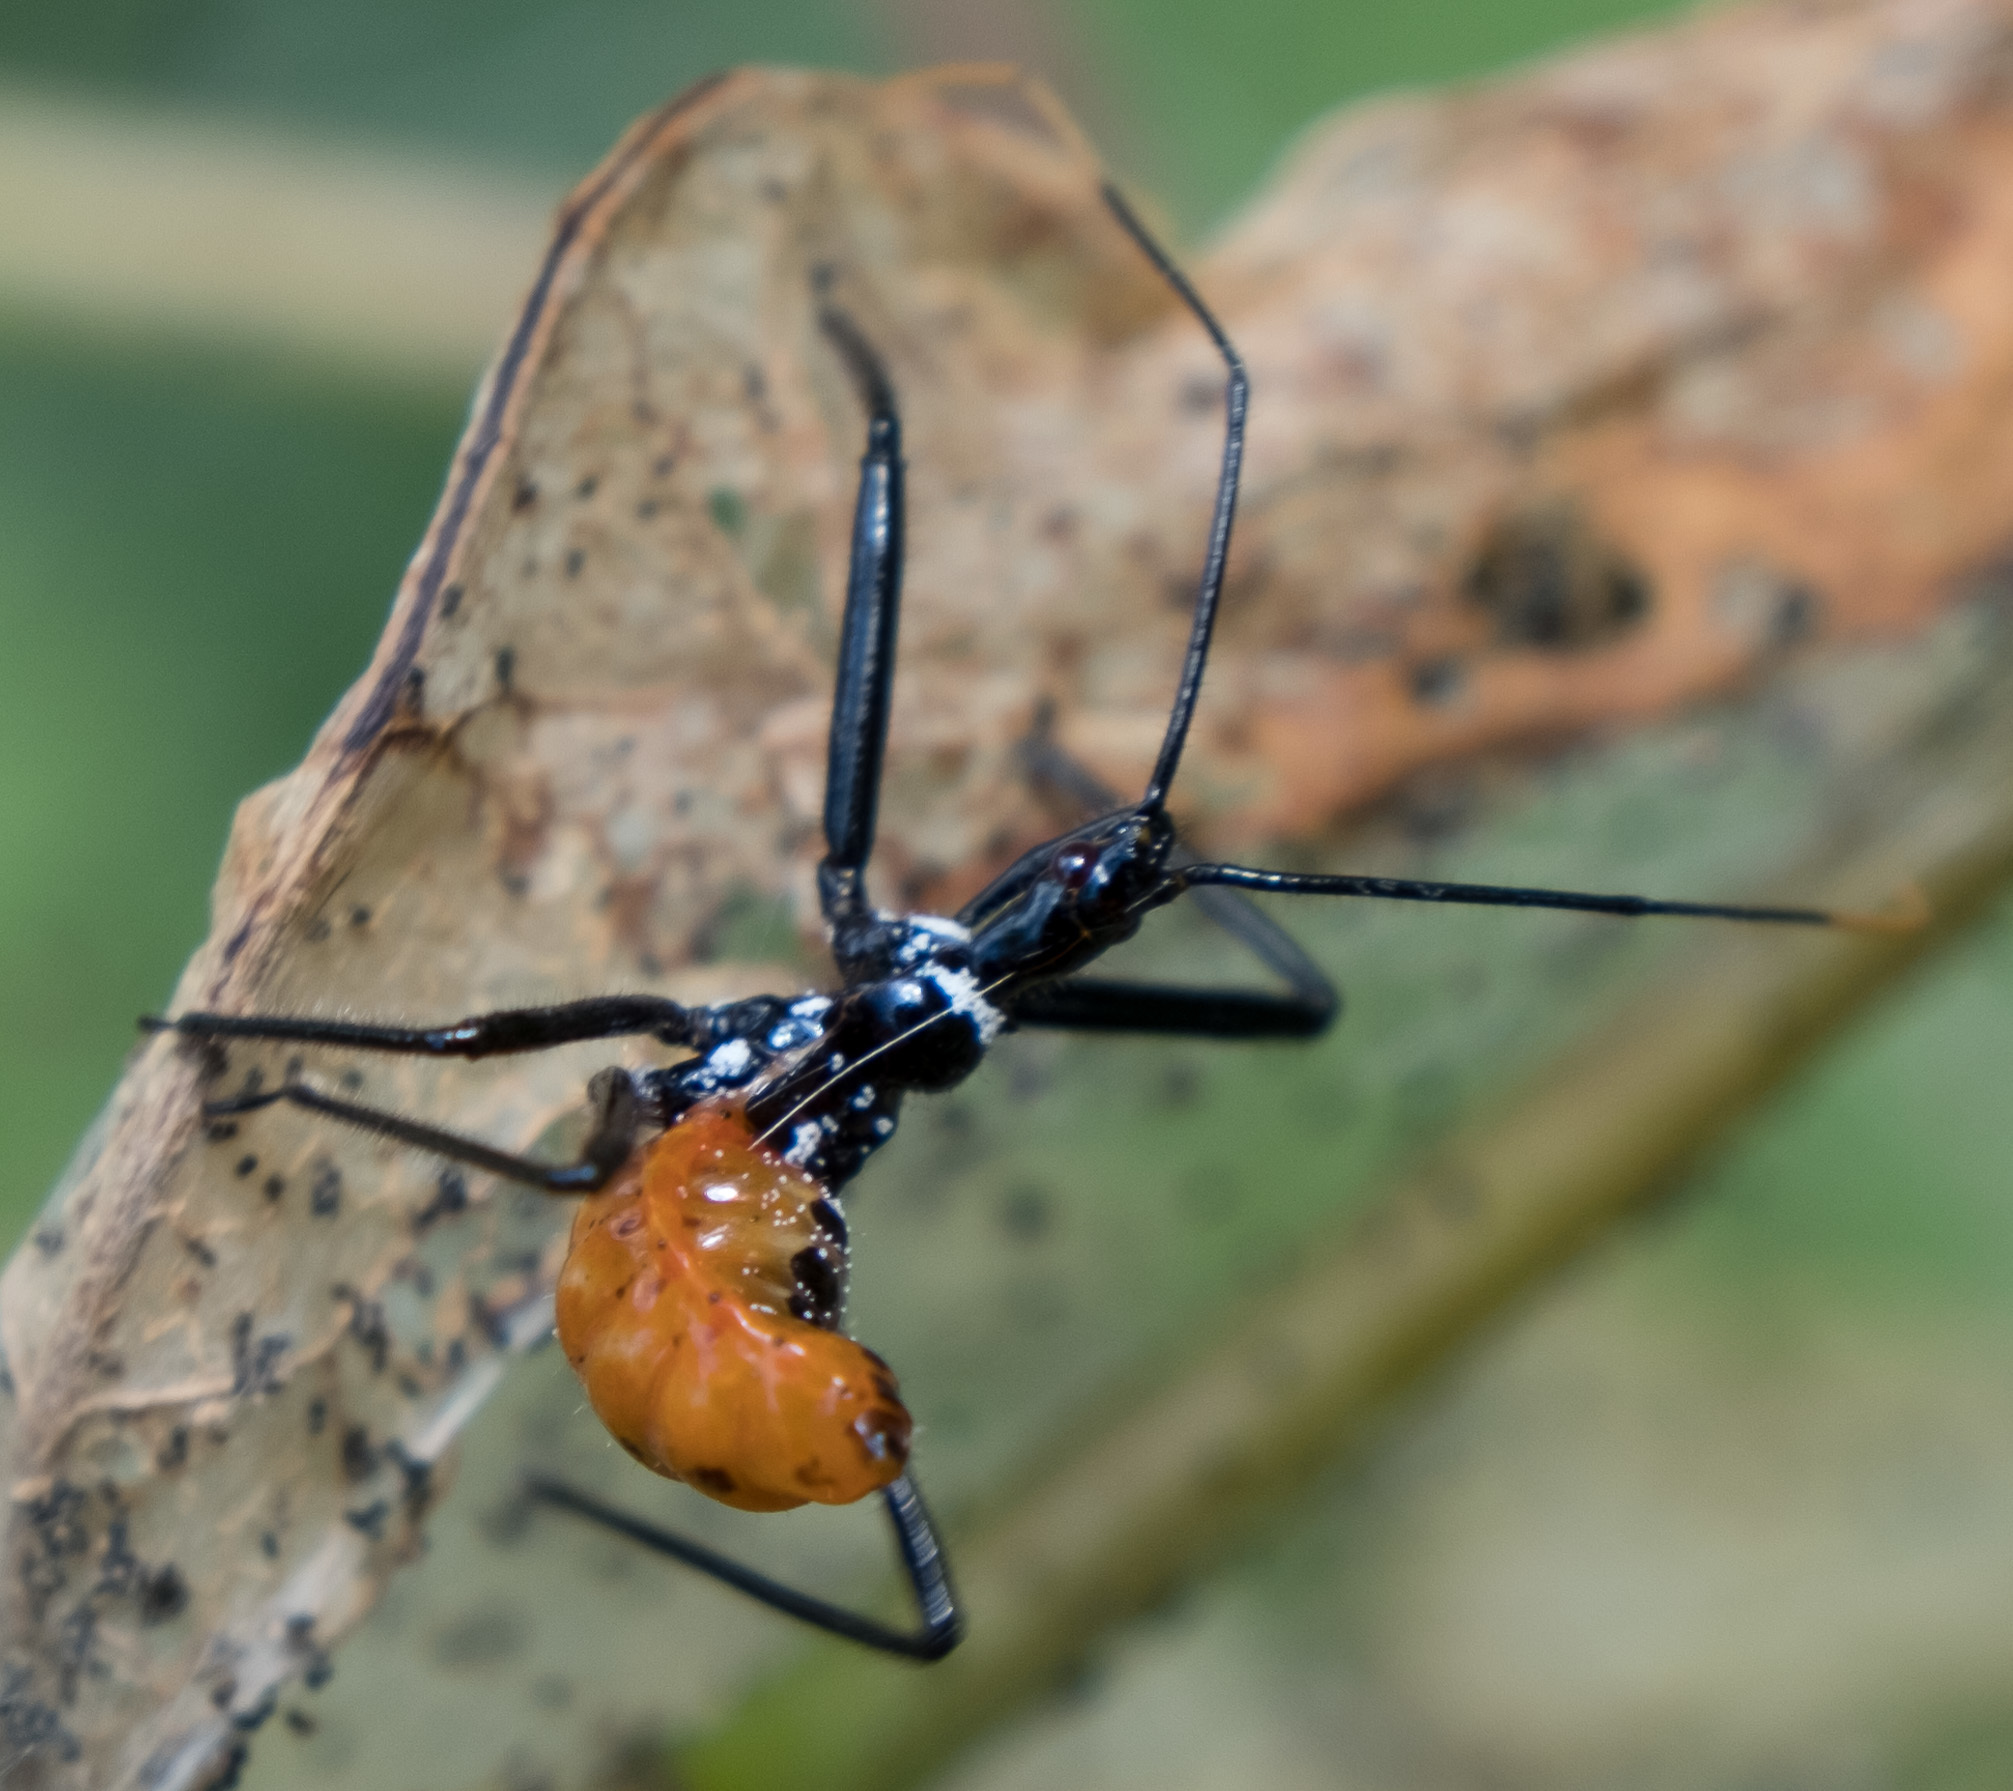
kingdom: Animalia
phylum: Arthropoda
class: Insecta
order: Hemiptera
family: Reduviidae
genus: Arilus
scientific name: Arilus cristatus
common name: North american wheel bug
